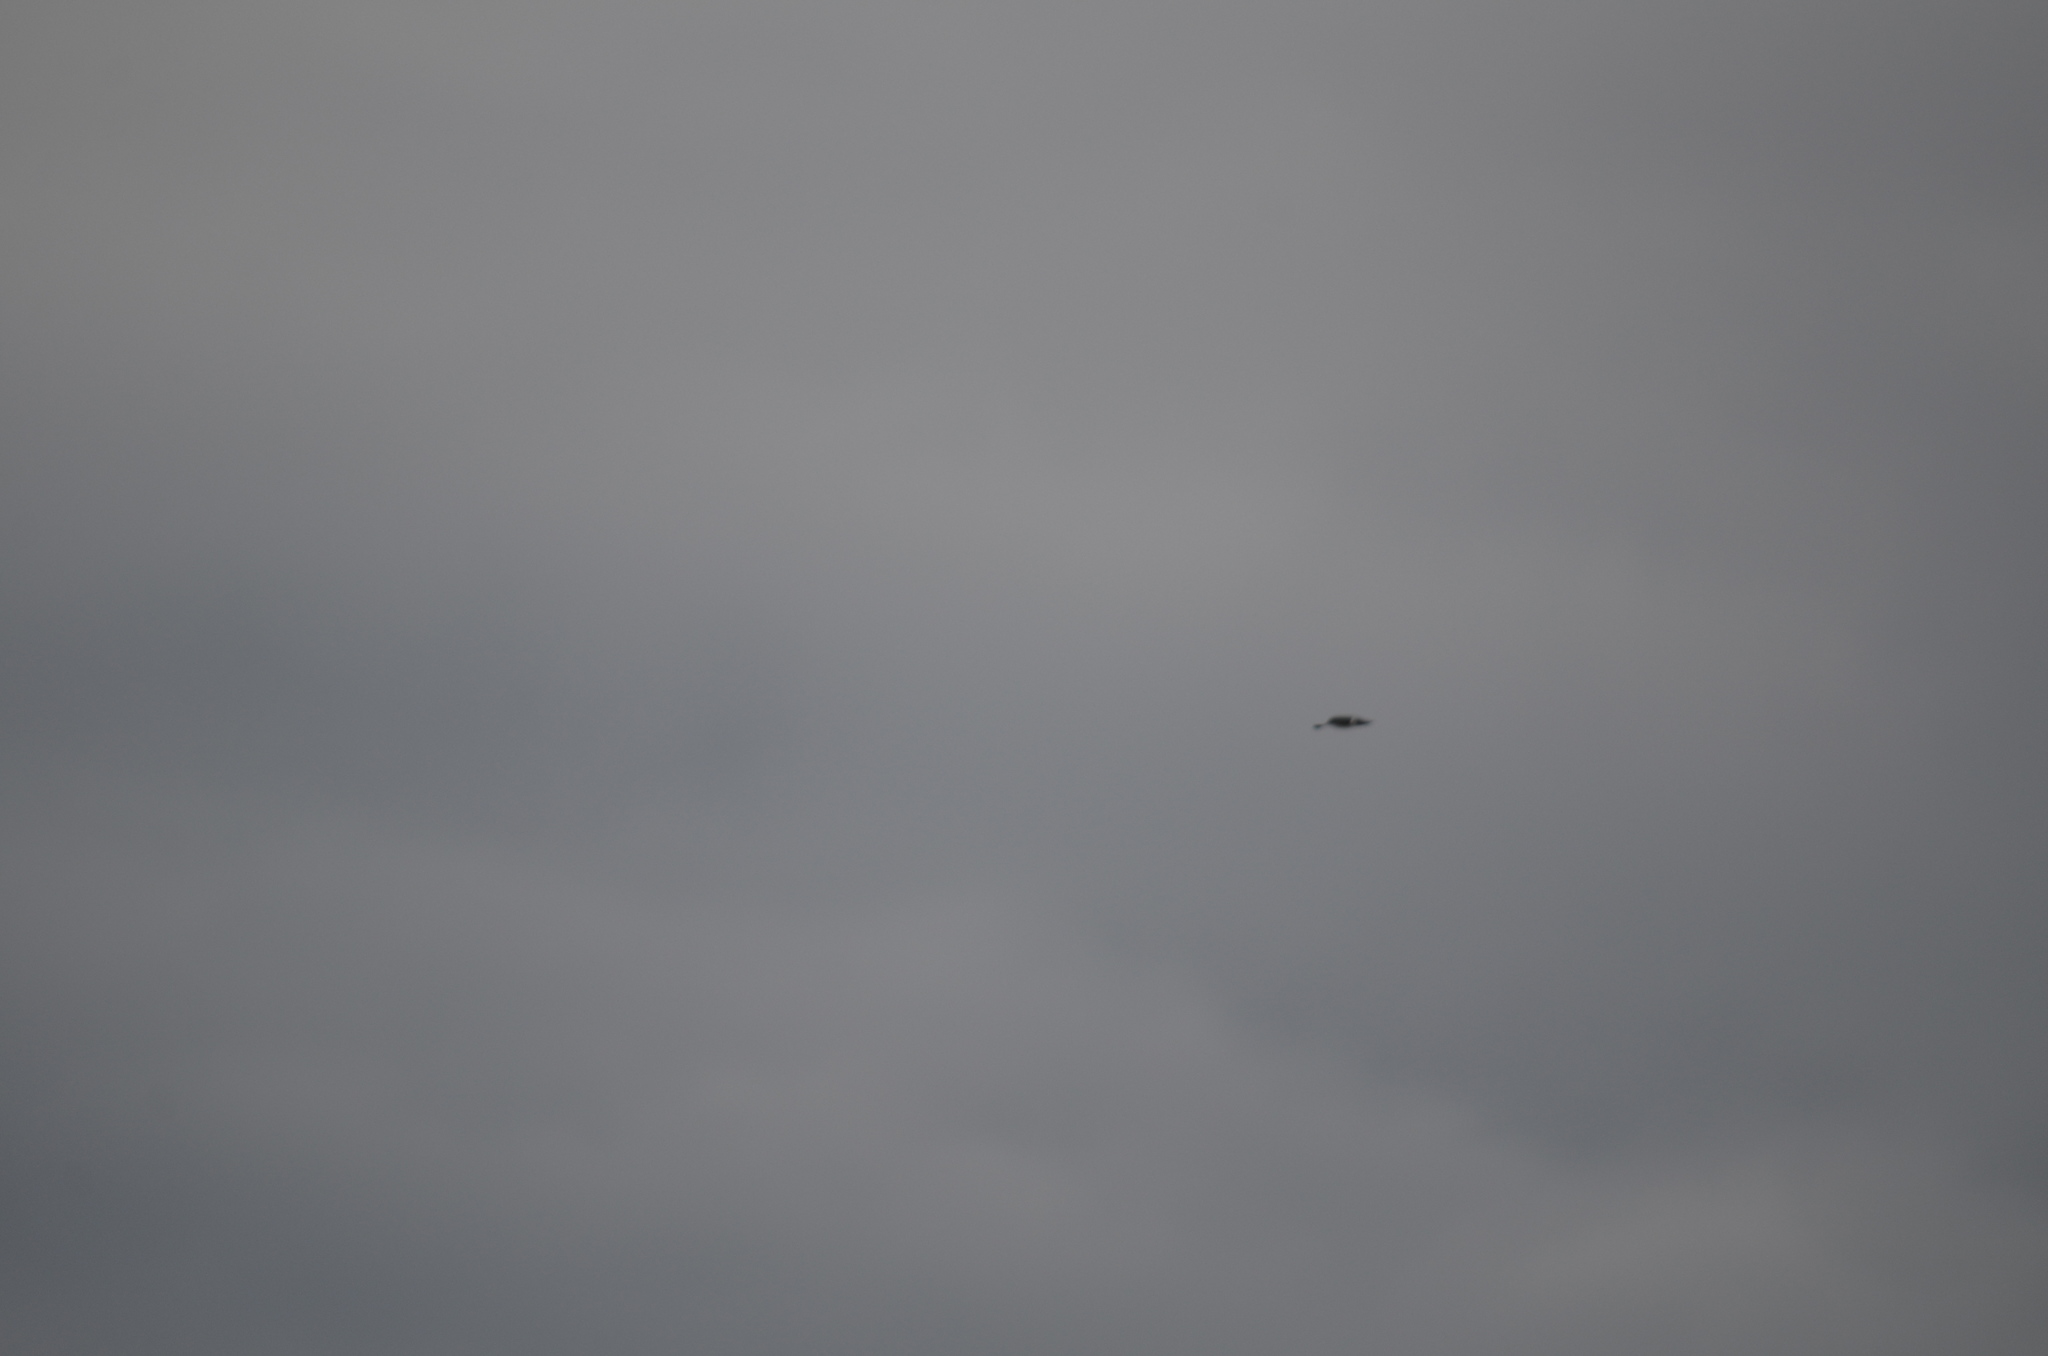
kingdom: Animalia
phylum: Chordata
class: Aves
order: Passeriformes
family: Hirundinidae
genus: Tachycineta
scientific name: Tachycineta thalassina
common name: Violet-green swallow
